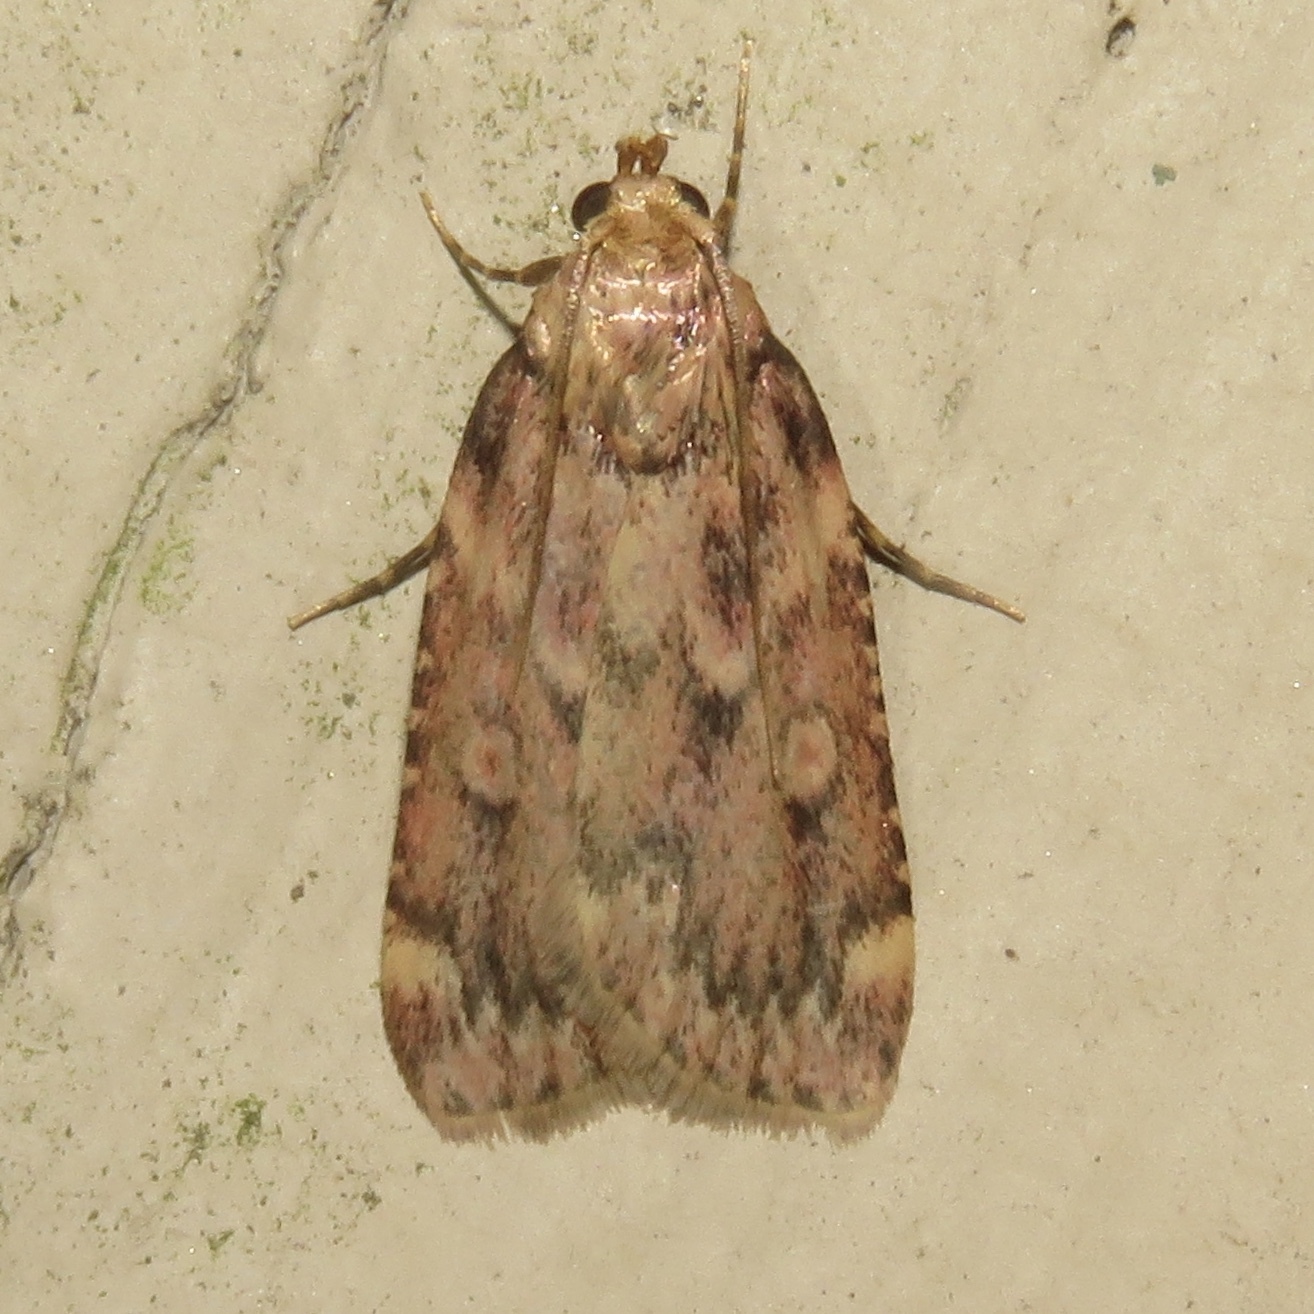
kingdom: Animalia
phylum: Arthropoda
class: Insecta
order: Lepidoptera
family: Pyralidae
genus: Aglossa
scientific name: Aglossa cuprina
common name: Grease moth
